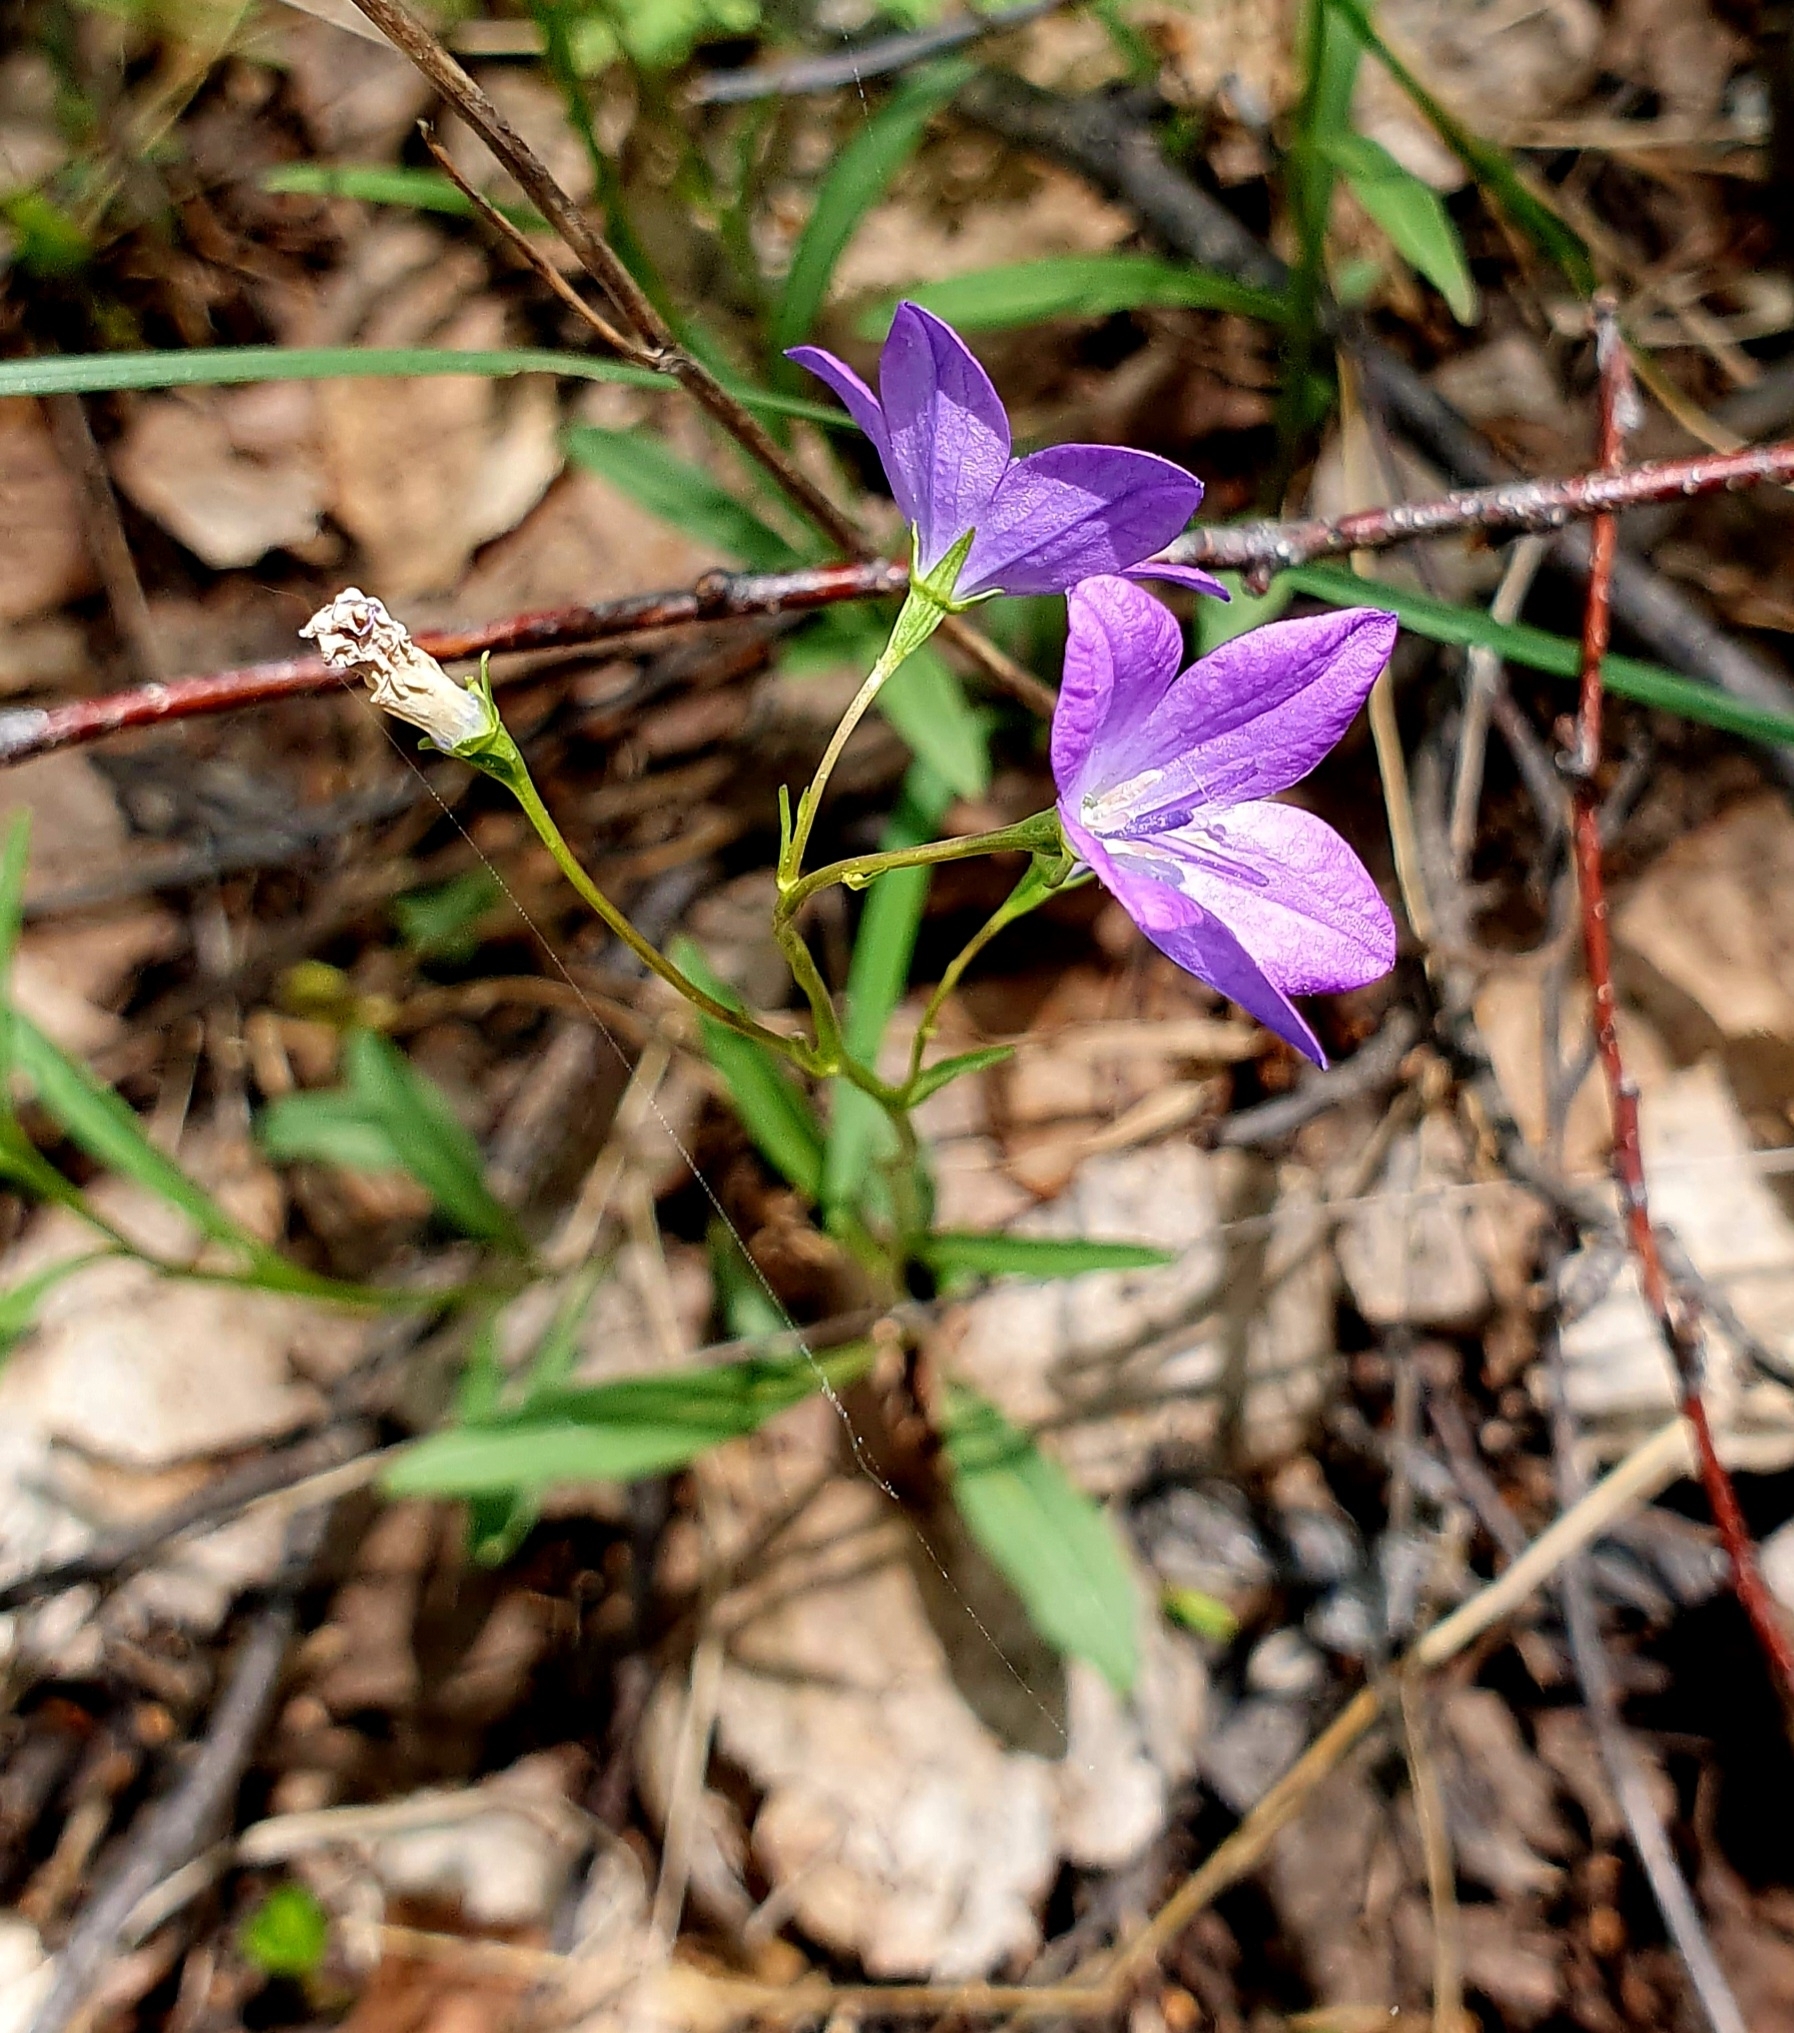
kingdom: Plantae
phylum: Tracheophyta
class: Magnoliopsida
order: Asterales
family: Campanulaceae
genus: Campanula
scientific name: Campanula stevenii
